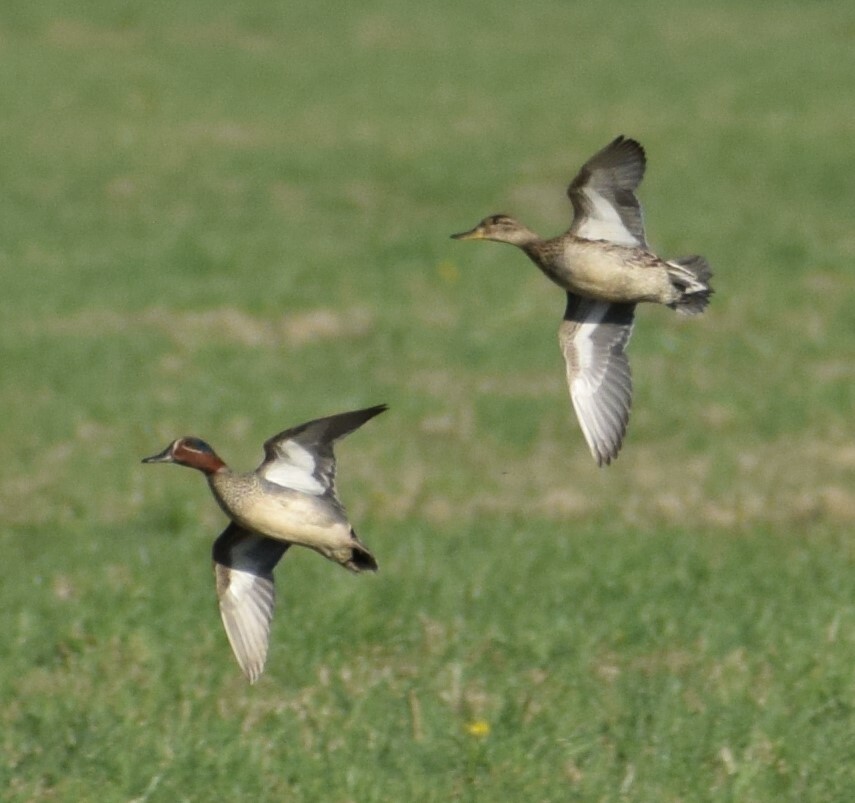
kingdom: Animalia
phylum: Chordata
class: Aves
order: Anseriformes
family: Anatidae
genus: Anas
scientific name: Anas crecca
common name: Eurasian teal
